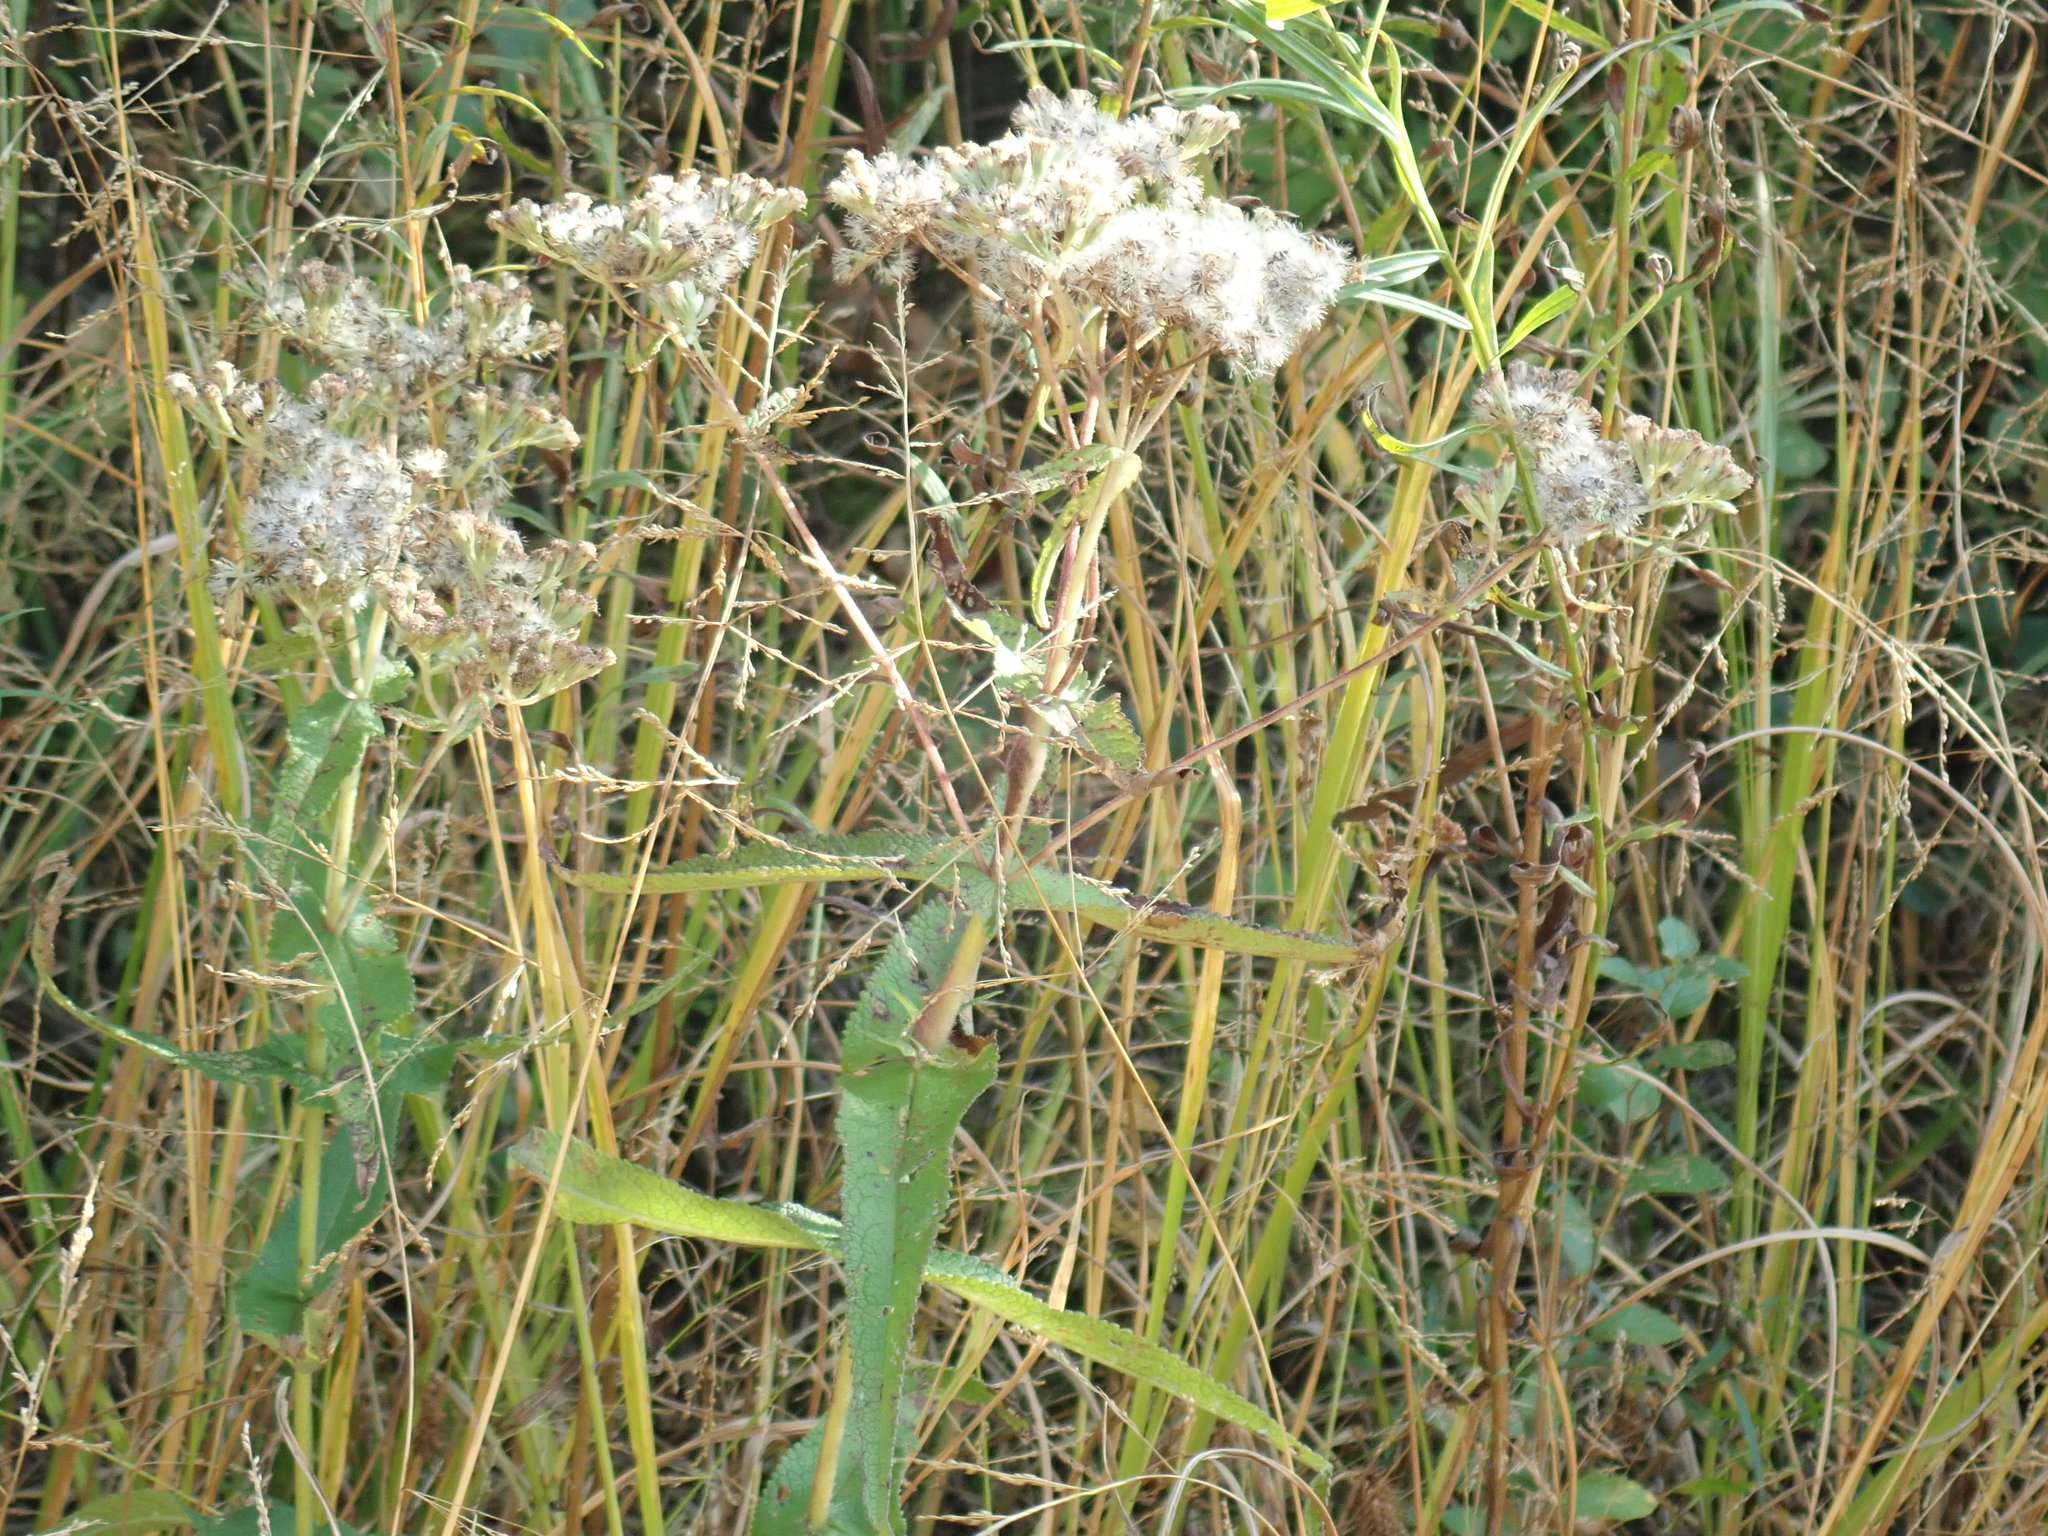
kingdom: Plantae
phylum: Tracheophyta
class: Magnoliopsida
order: Asterales
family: Asteraceae
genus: Eupatorium
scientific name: Eupatorium perfoliatum
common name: Boneset
